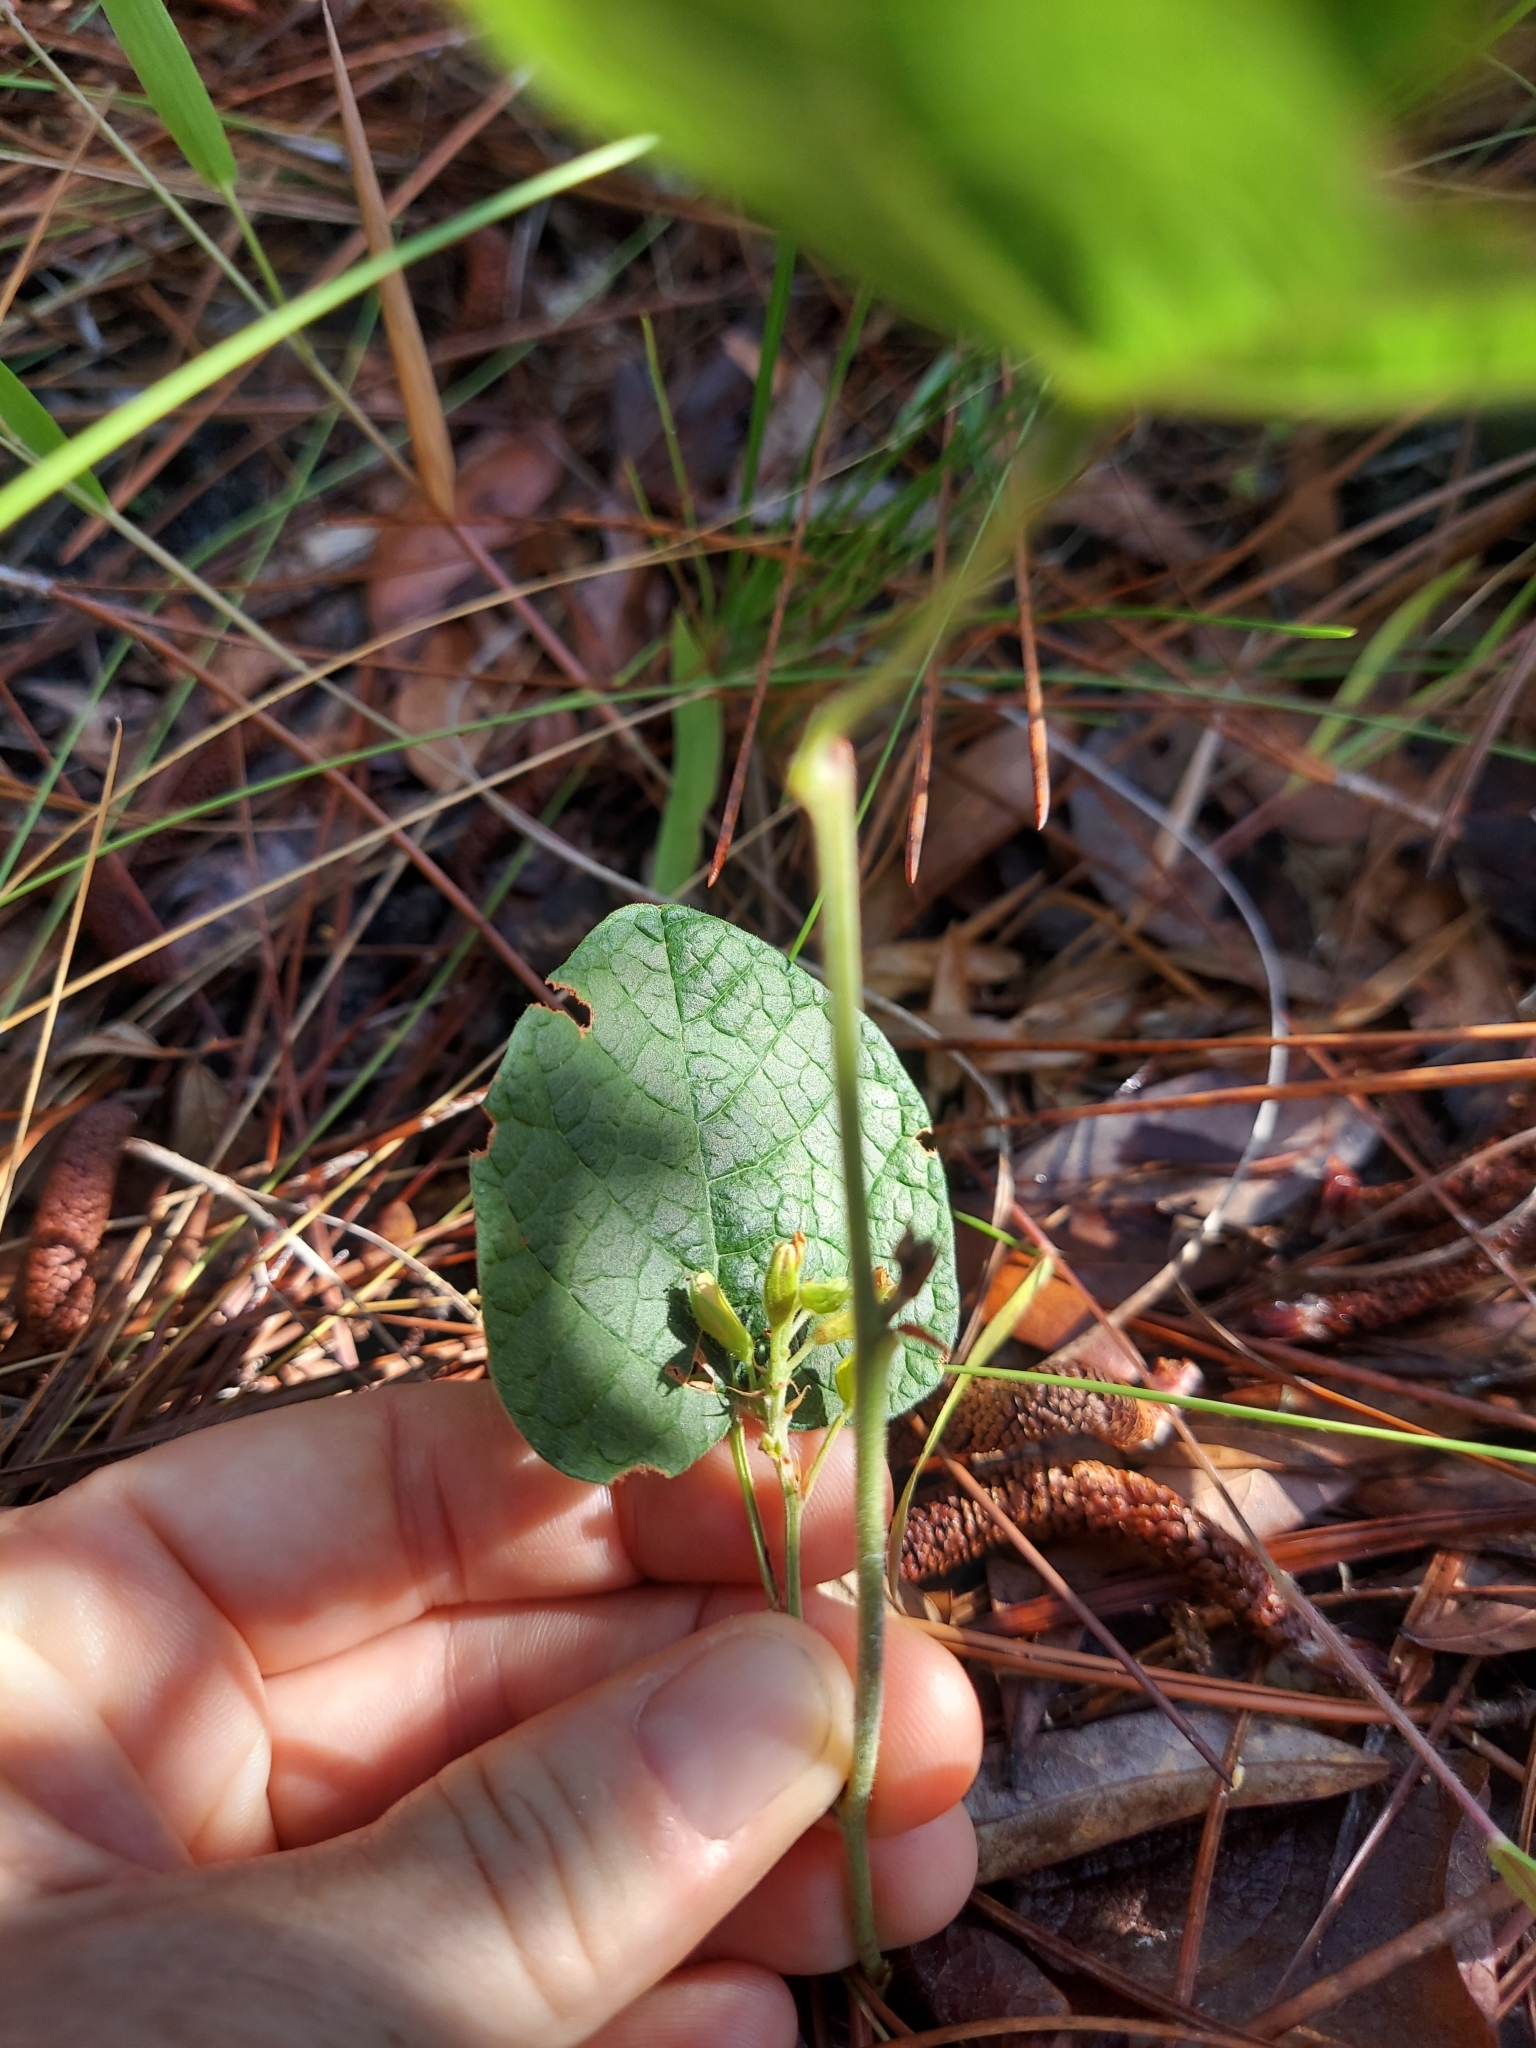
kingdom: Plantae
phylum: Tracheophyta
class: Magnoliopsida
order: Fabales
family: Fabaceae
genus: Rhynchosia
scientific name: Rhynchosia reniformis
